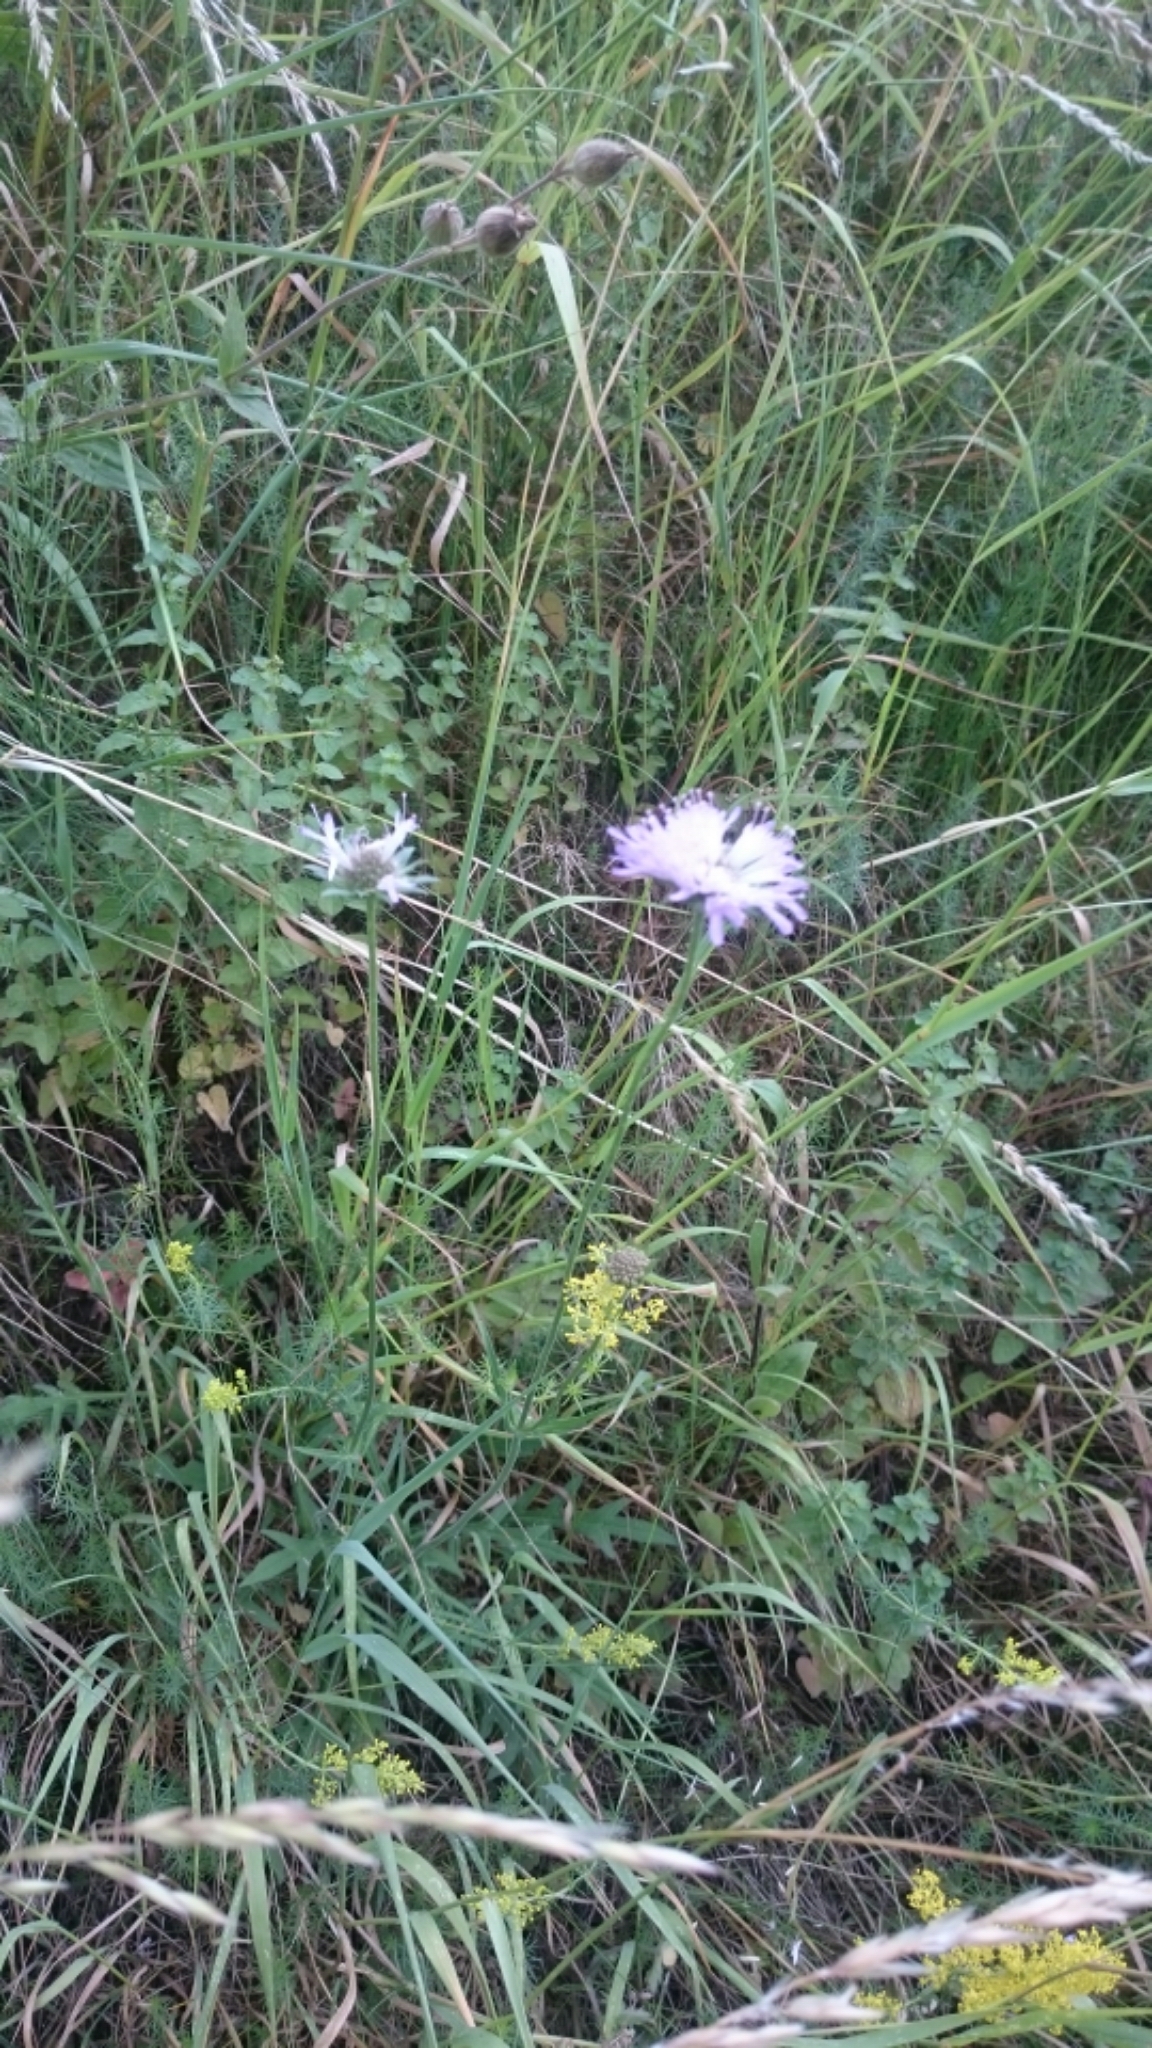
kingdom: Plantae
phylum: Tracheophyta
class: Magnoliopsida
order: Dipsacales
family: Caprifoliaceae
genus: Knautia
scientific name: Knautia arvensis
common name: Field scabiosa
